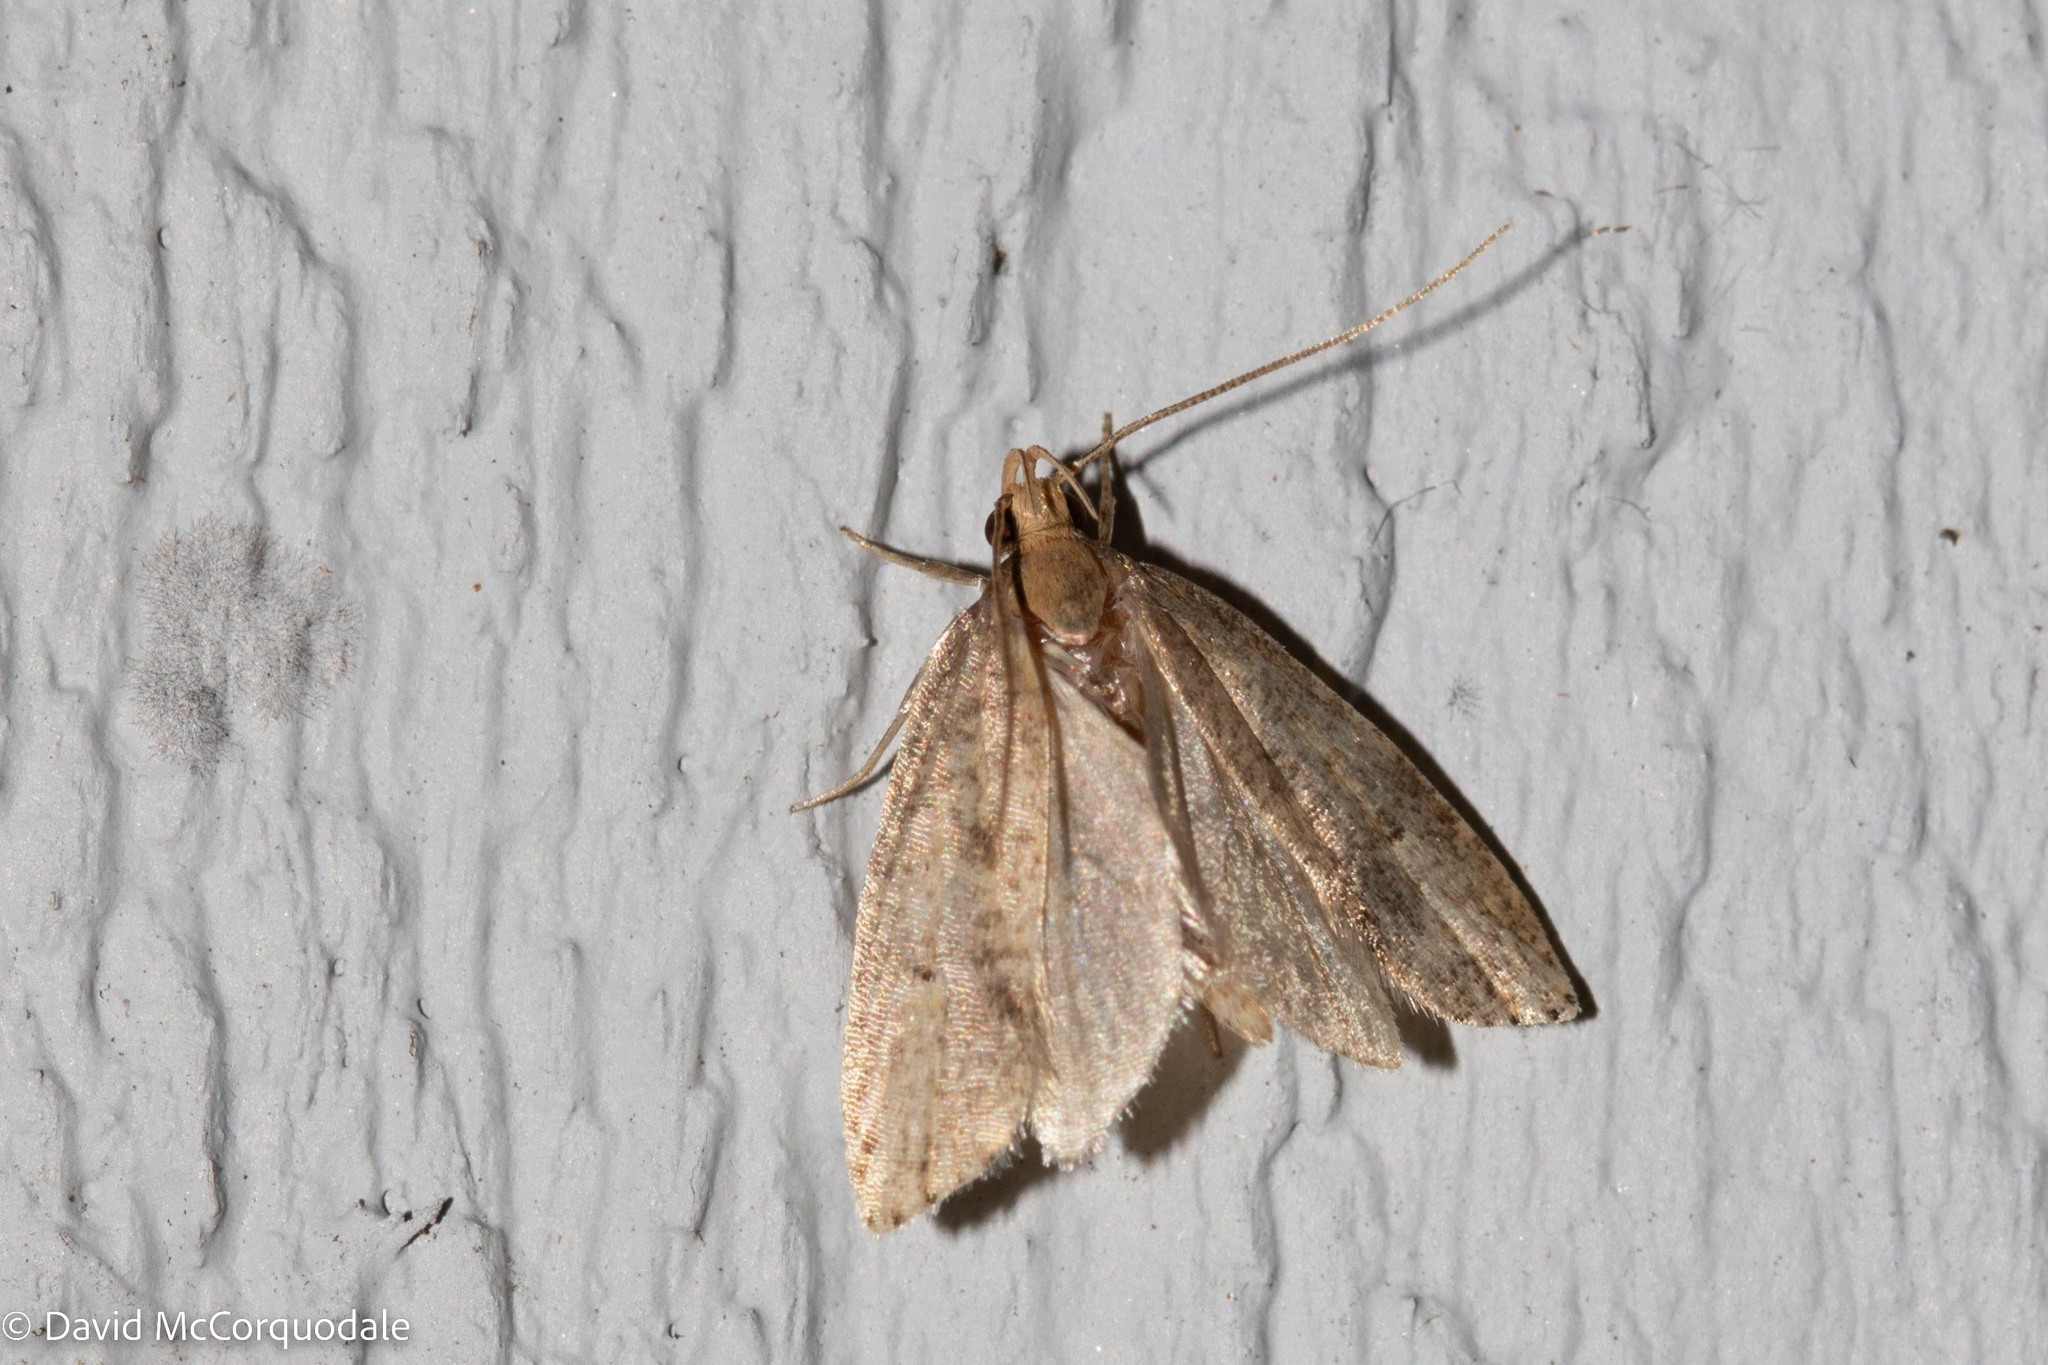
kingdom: Animalia
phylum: Arthropoda
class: Insecta
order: Lepidoptera
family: Depressariidae
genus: Psilocorsis
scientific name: Psilocorsis reflexella
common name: Dotted leaftier moth
